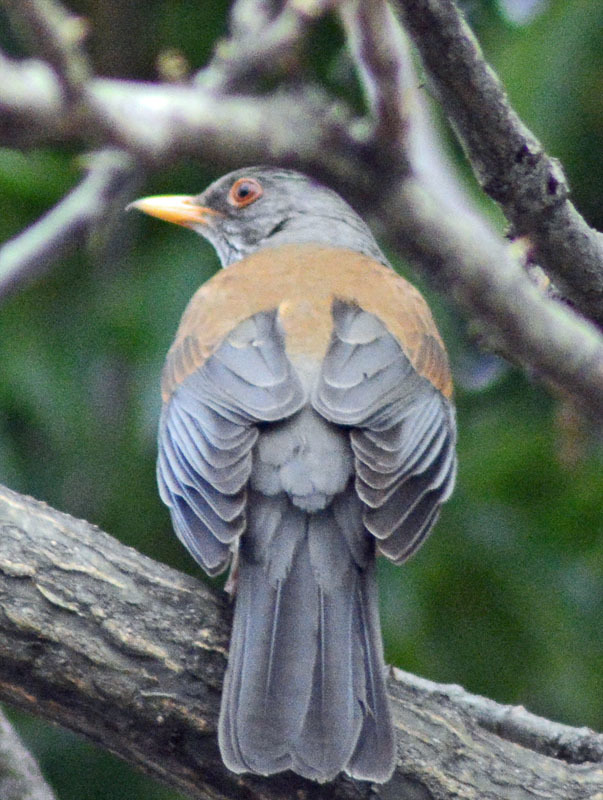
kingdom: Animalia
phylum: Chordata
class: Aves
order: Passeriformes
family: Turdidae
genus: Turdus
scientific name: Turdus rufopalliatus
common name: Rufous-backed robin
